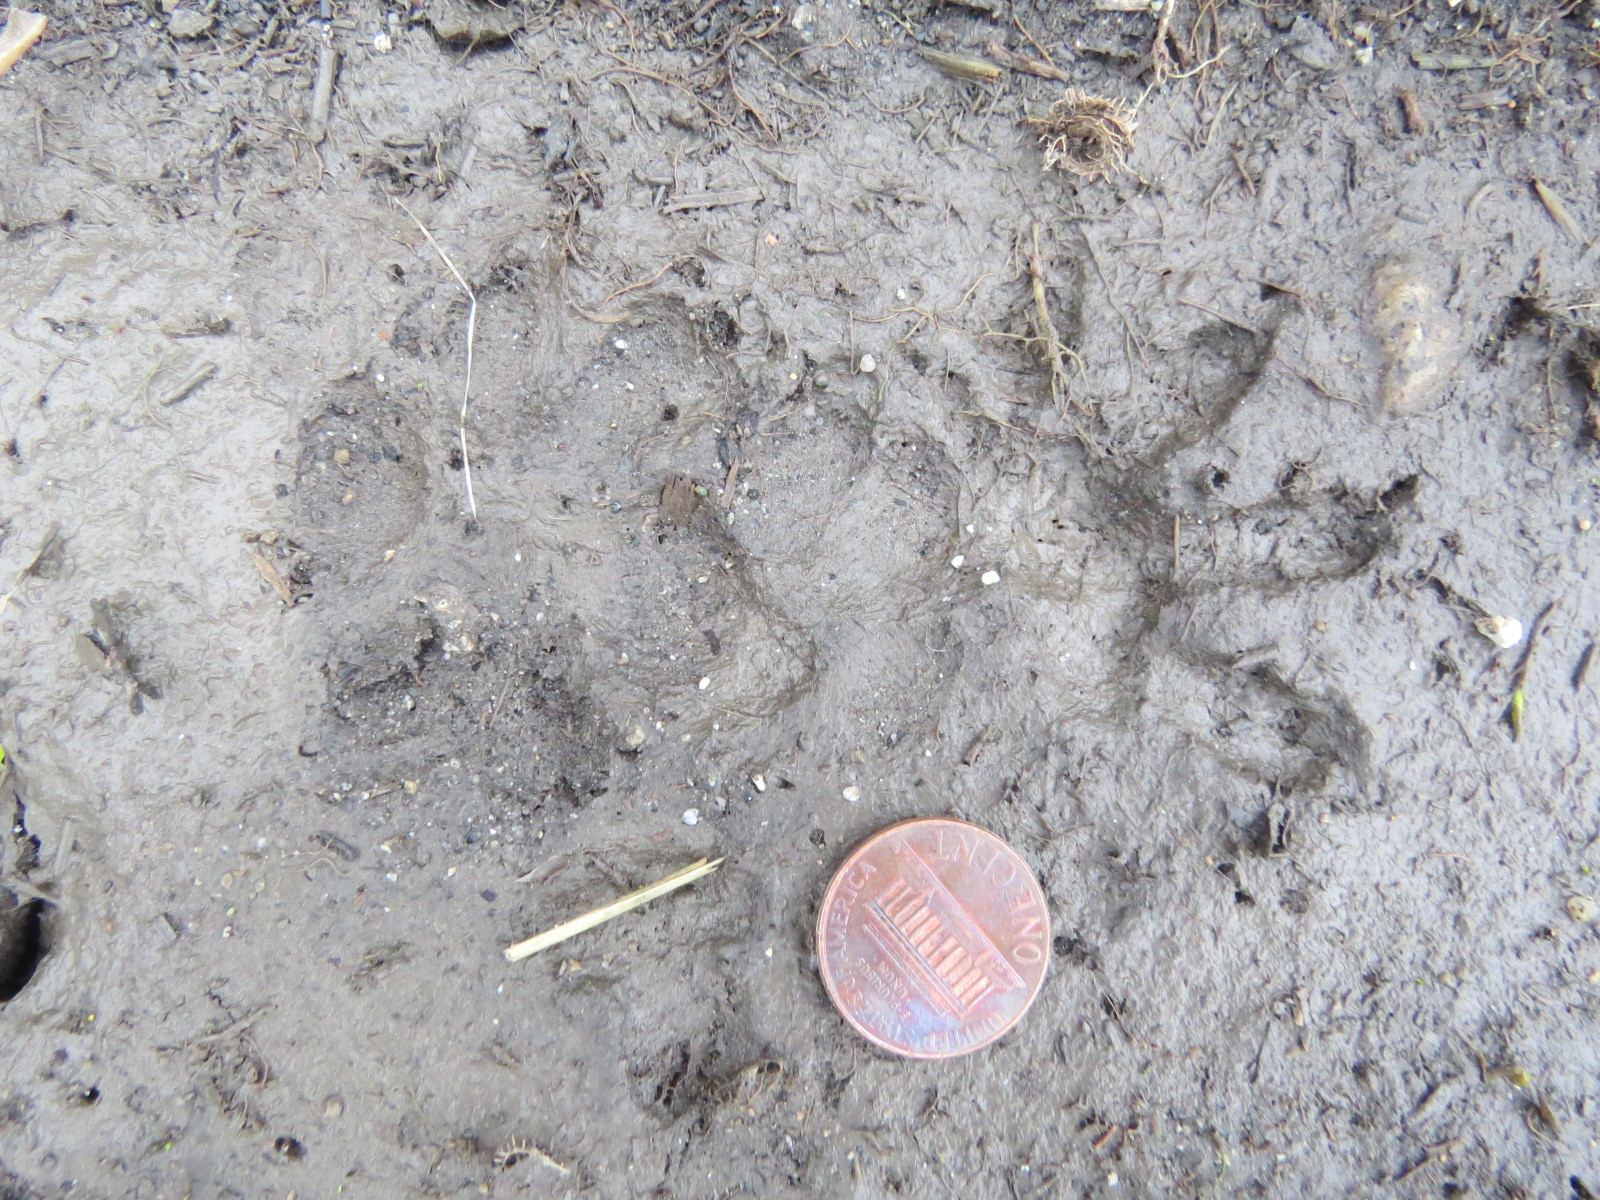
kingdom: Animalia
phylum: Chordata
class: Mammalia
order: Carnivora
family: Canidae
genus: Urocyon
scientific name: Urocyon cinereoargenteus
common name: Gray fox
